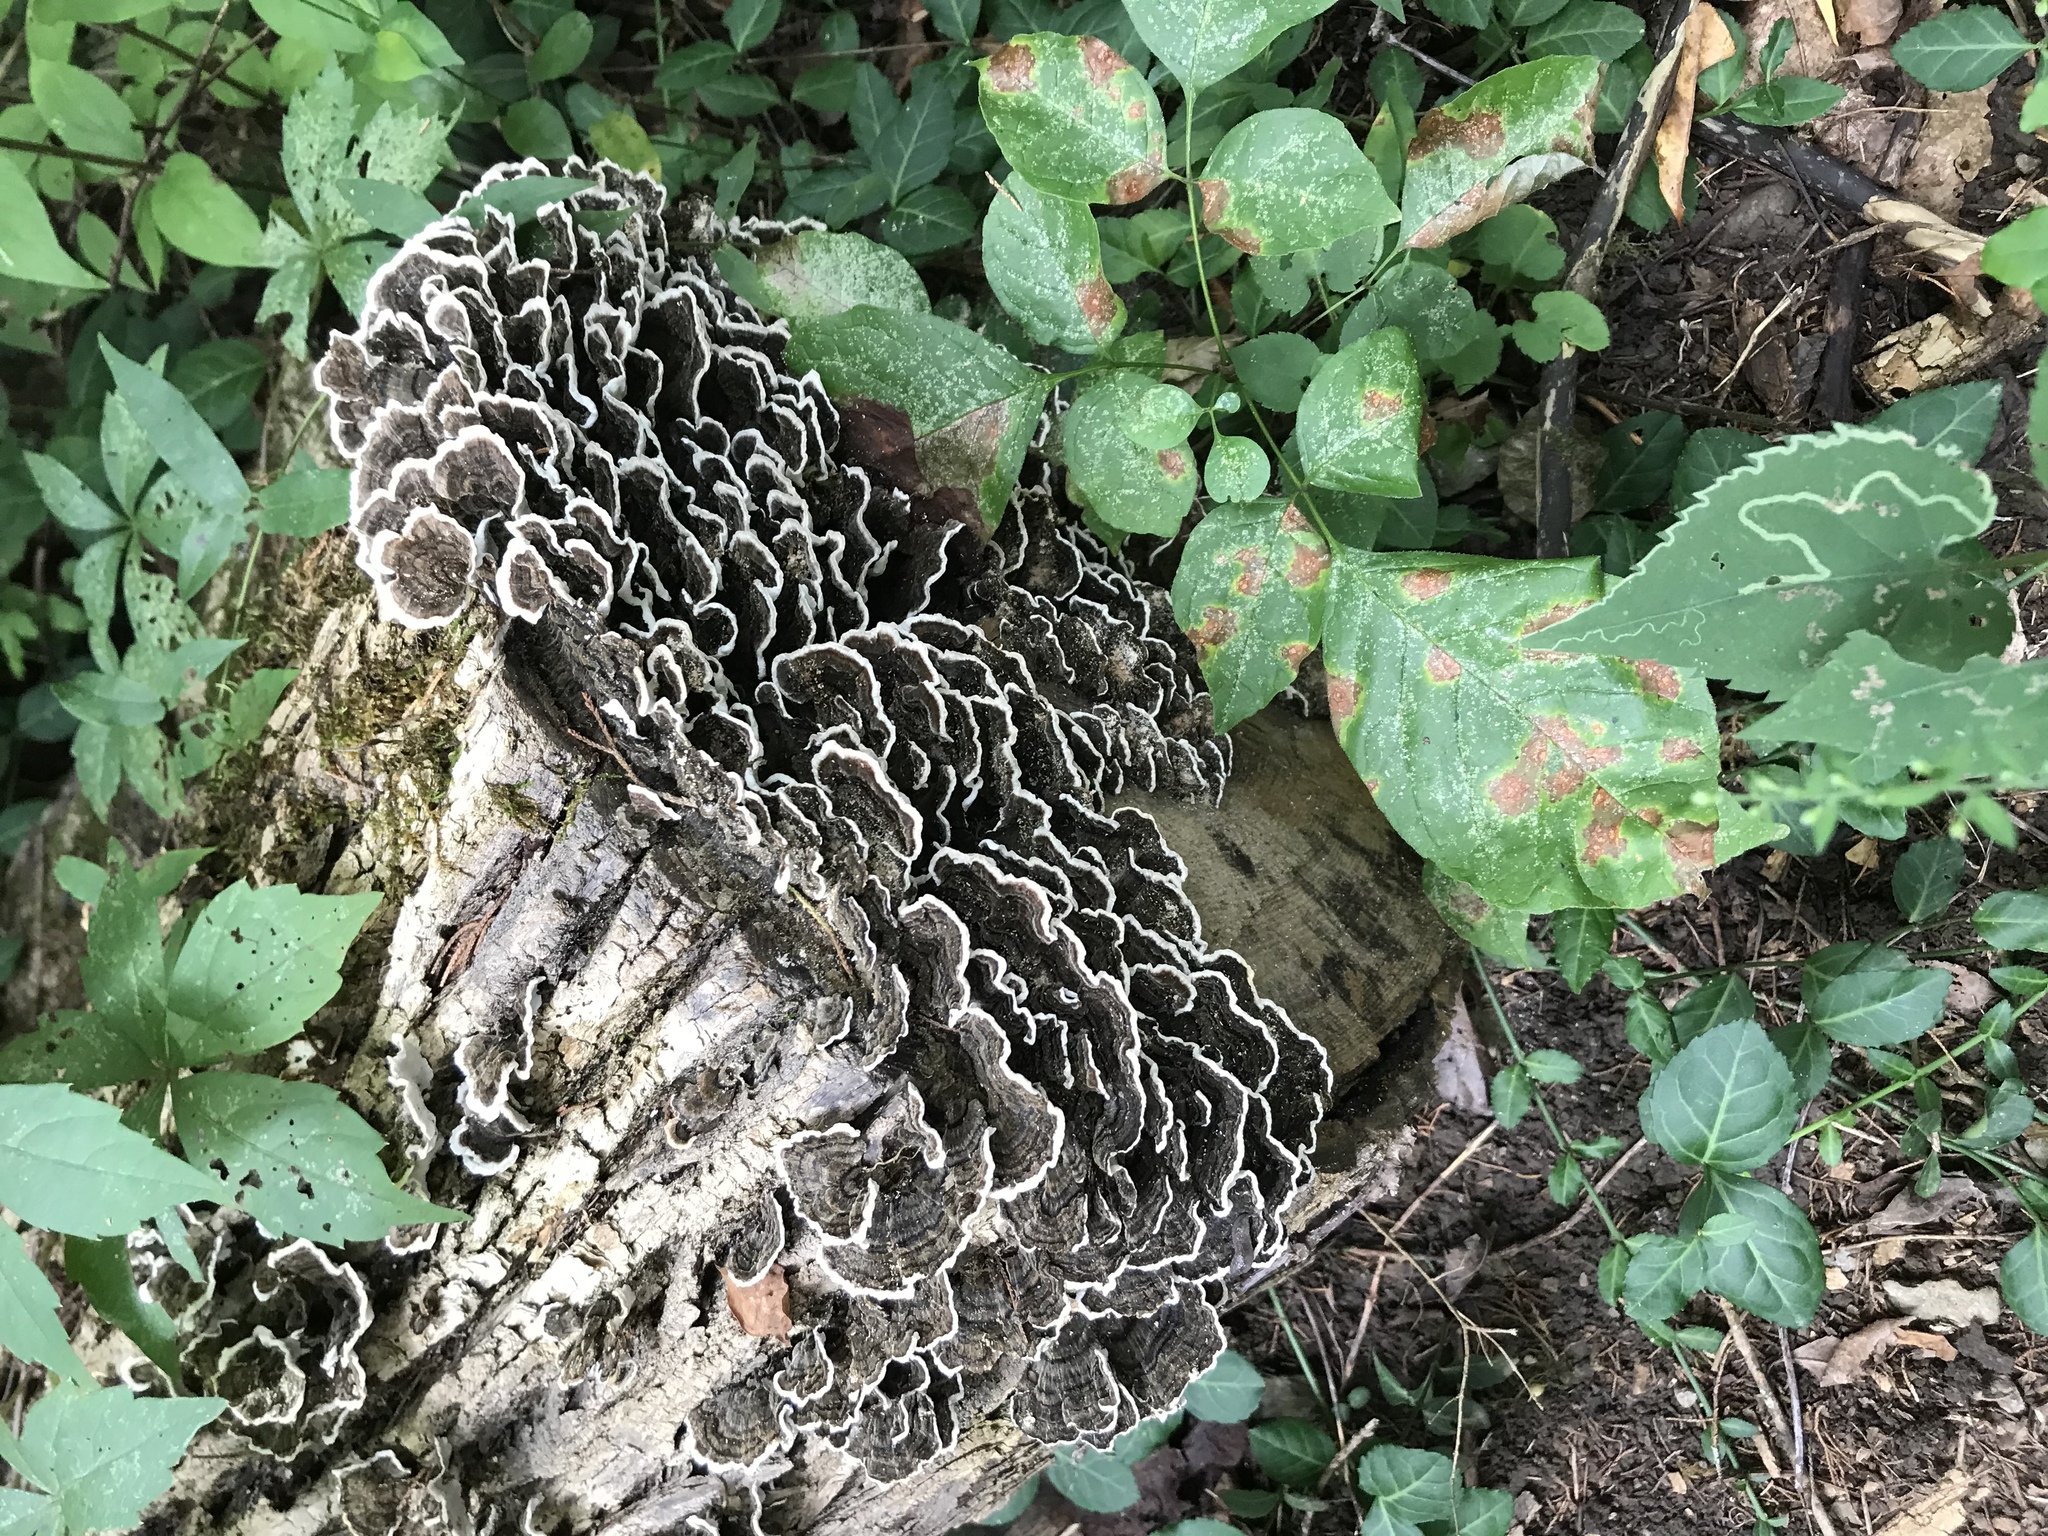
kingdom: Fungi
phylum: Basidiomycota
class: Agaricomycetes
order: Polyporales
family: Polyporaceae
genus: Trametes
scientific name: Trametes versicolor
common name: Turkeytail
